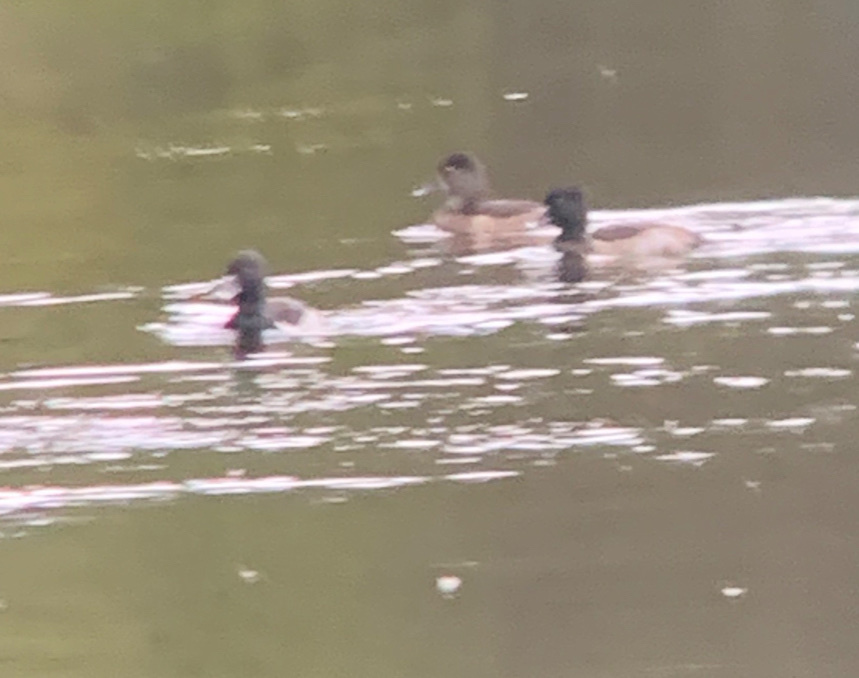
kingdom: Animalia
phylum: Chordata
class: Aves
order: Anseriformes
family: Anatidae
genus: Aythya
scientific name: Aythya collaris
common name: Ring-necked duck
